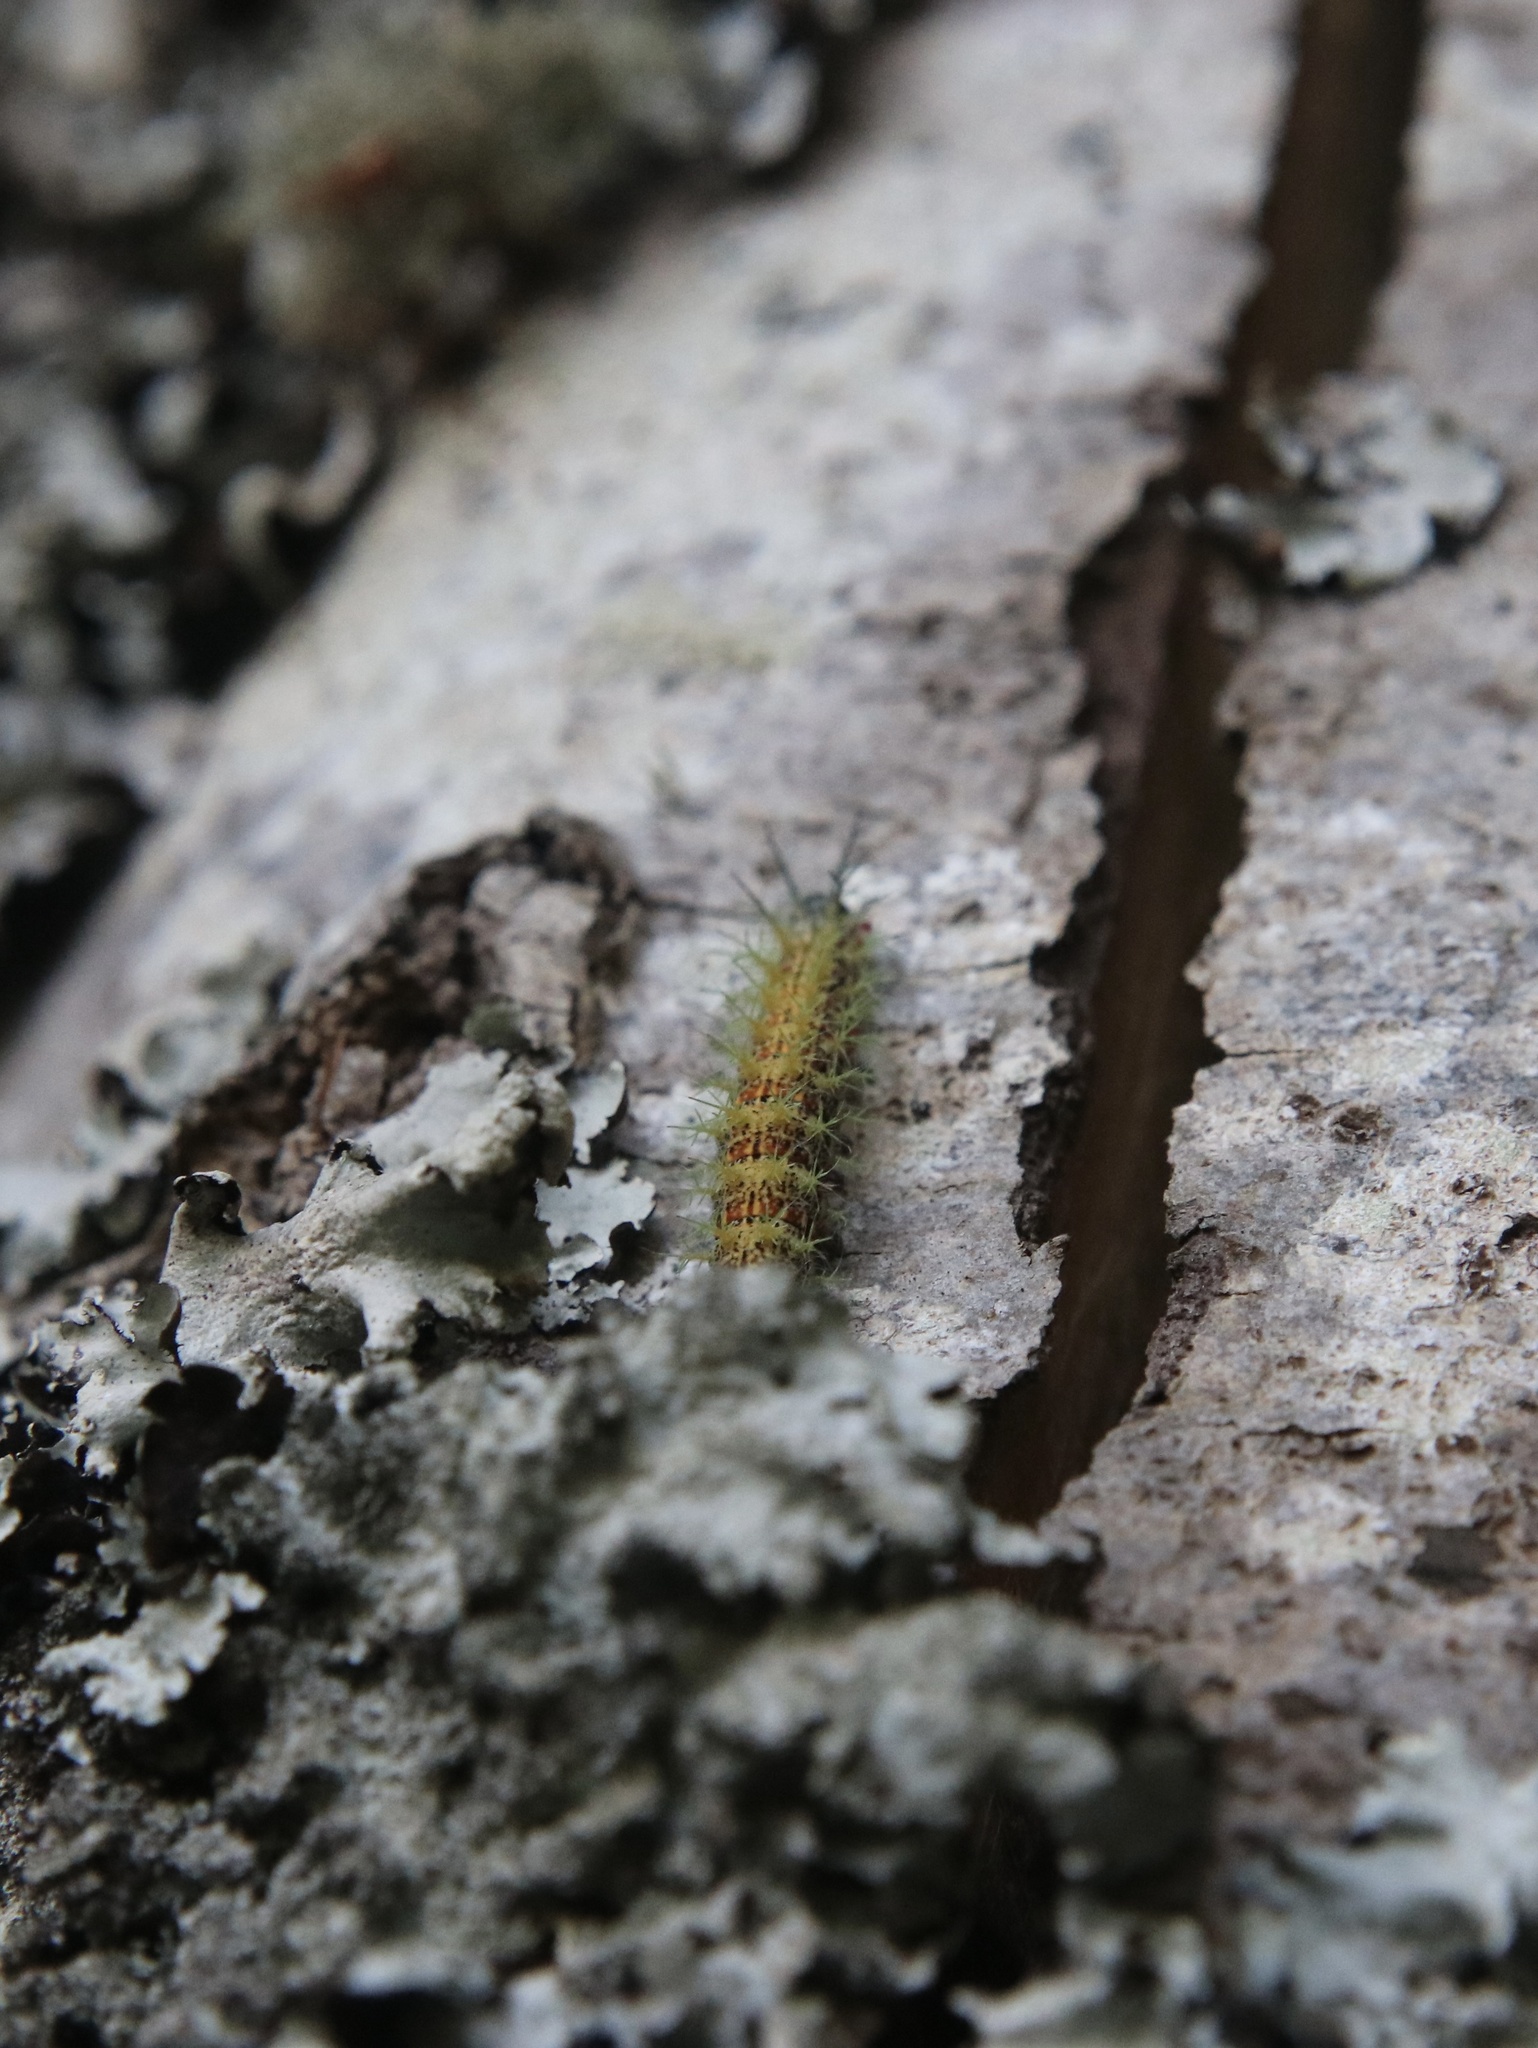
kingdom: Animalia
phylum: Arthropoda
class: Insecta
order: Lepidoptera
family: Saturniidae
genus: Ormiscodes
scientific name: Ormiscodes amphinome
